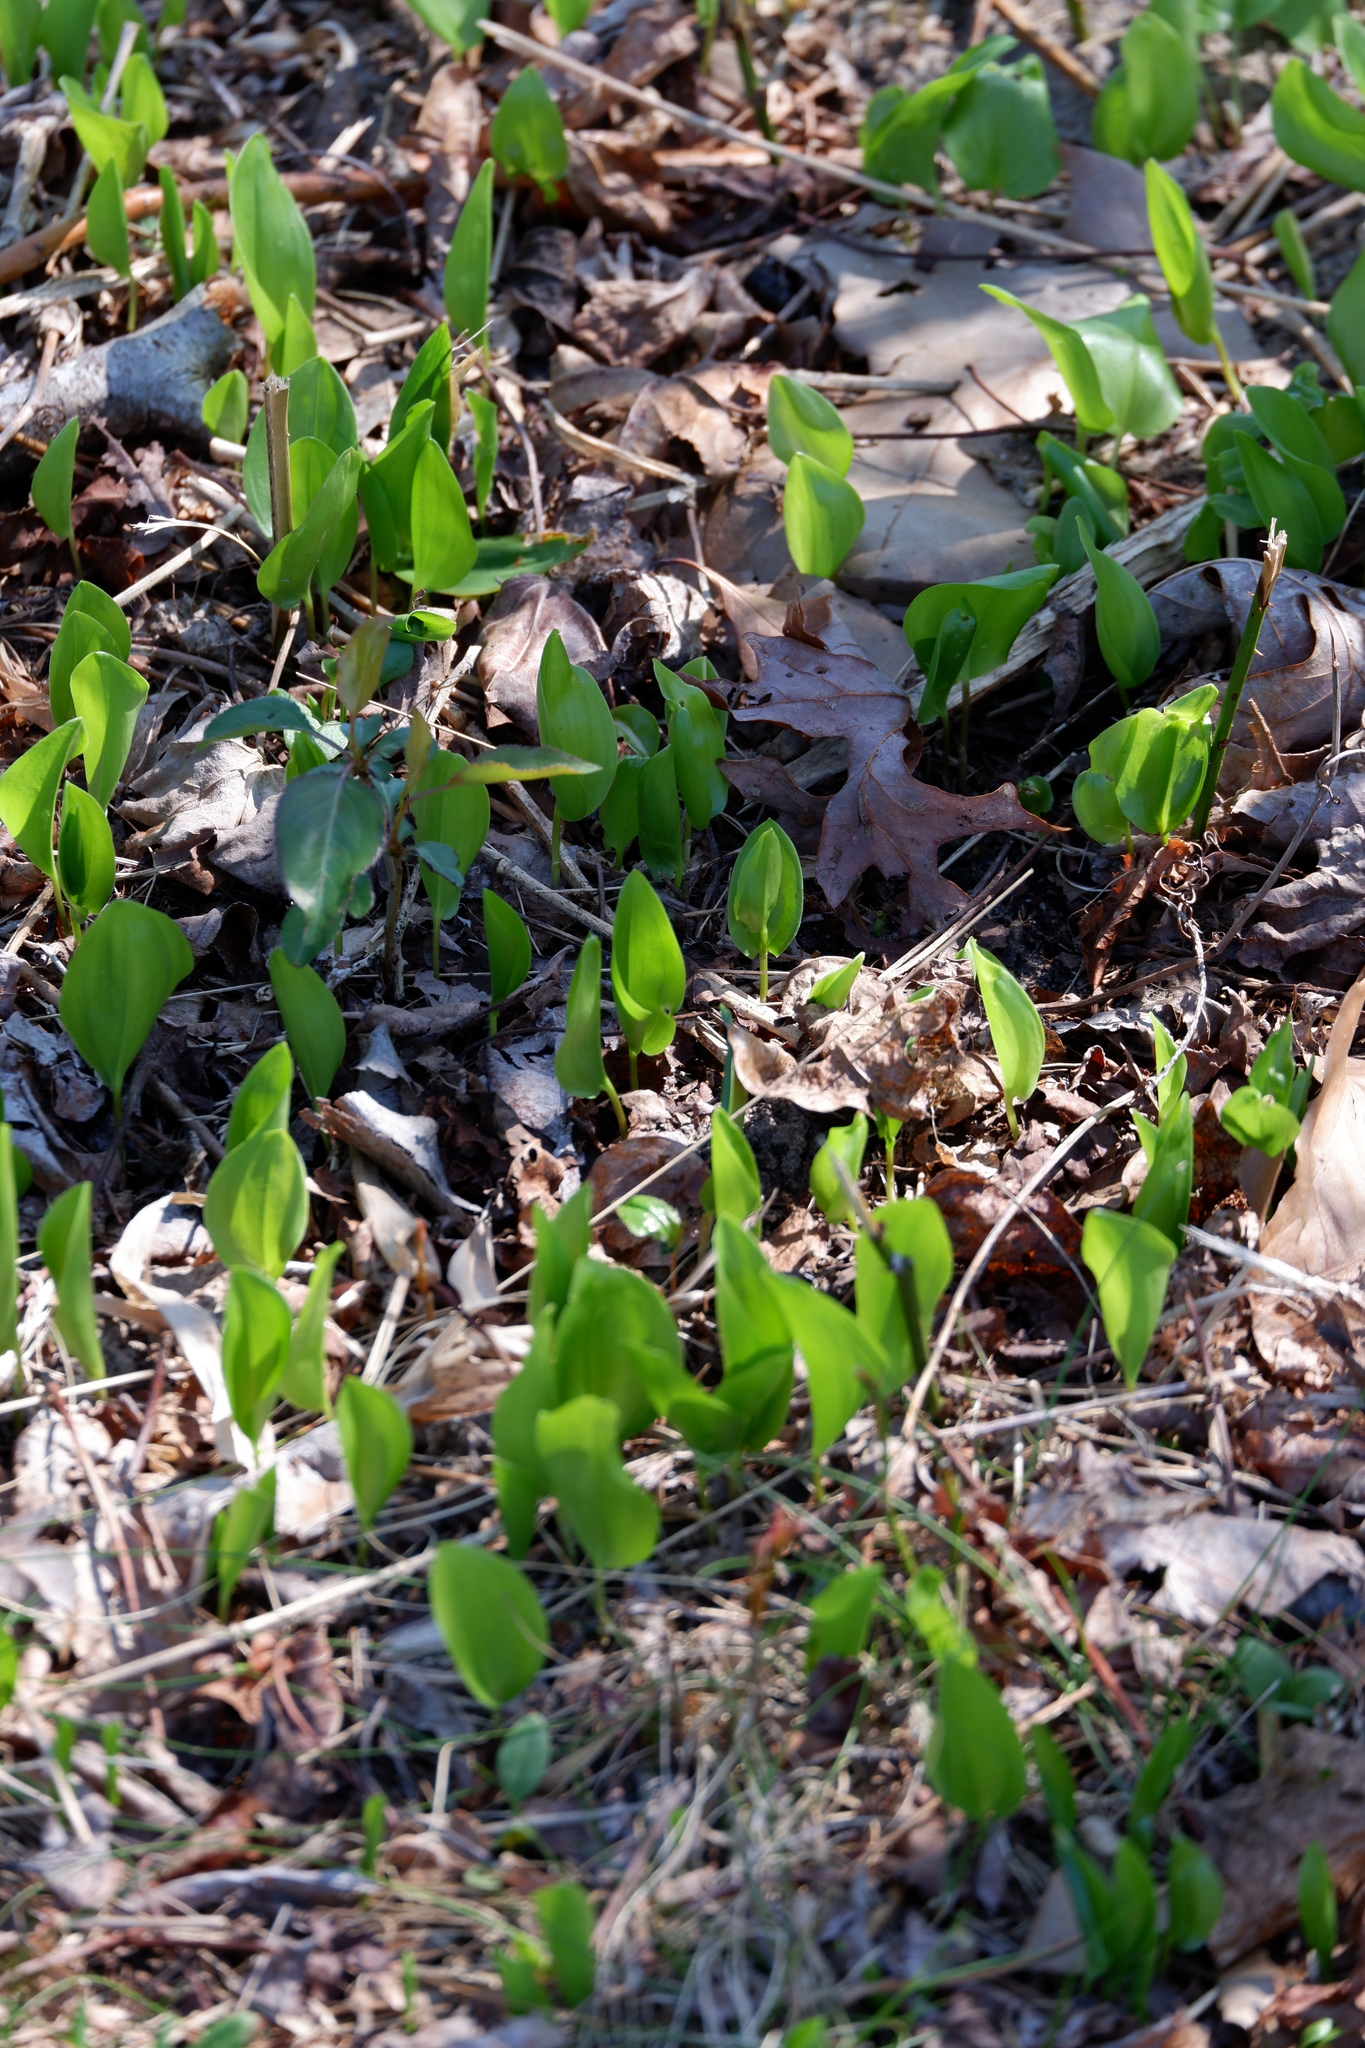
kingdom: Plantae
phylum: Tracheophyta
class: Liliopsida
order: Asparagales
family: Asparagaceae
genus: Maianthemum
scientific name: Maianthemum canadense
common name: False lily-of-the-valley
